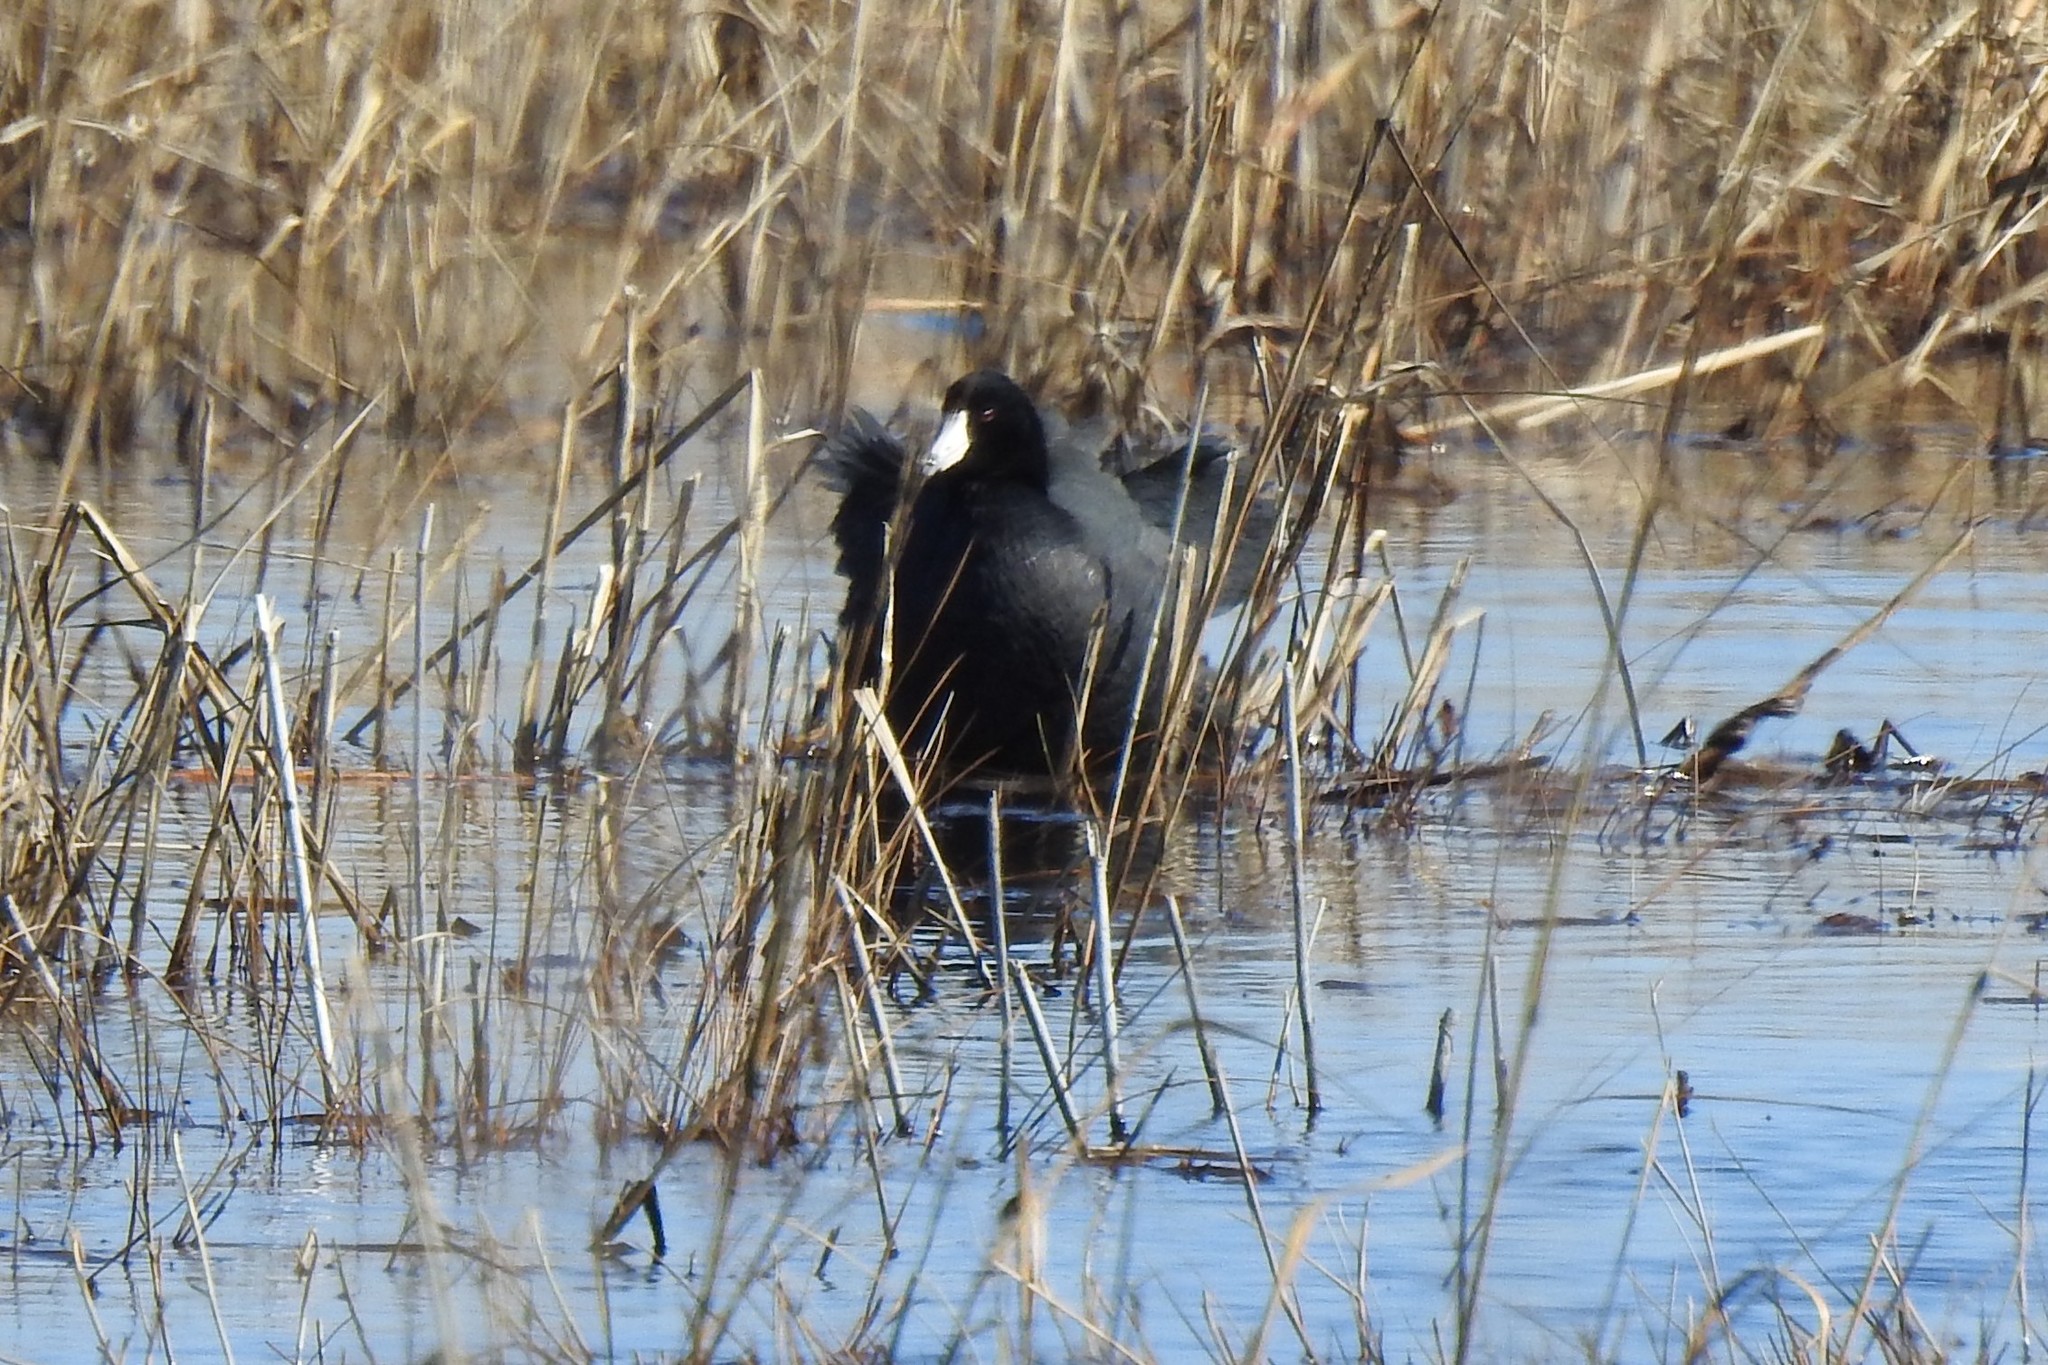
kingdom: Animalia
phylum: Chordata
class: Aves
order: Gruiformes
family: Rallidae
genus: Fulica
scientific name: Fulica americana
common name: American coot
